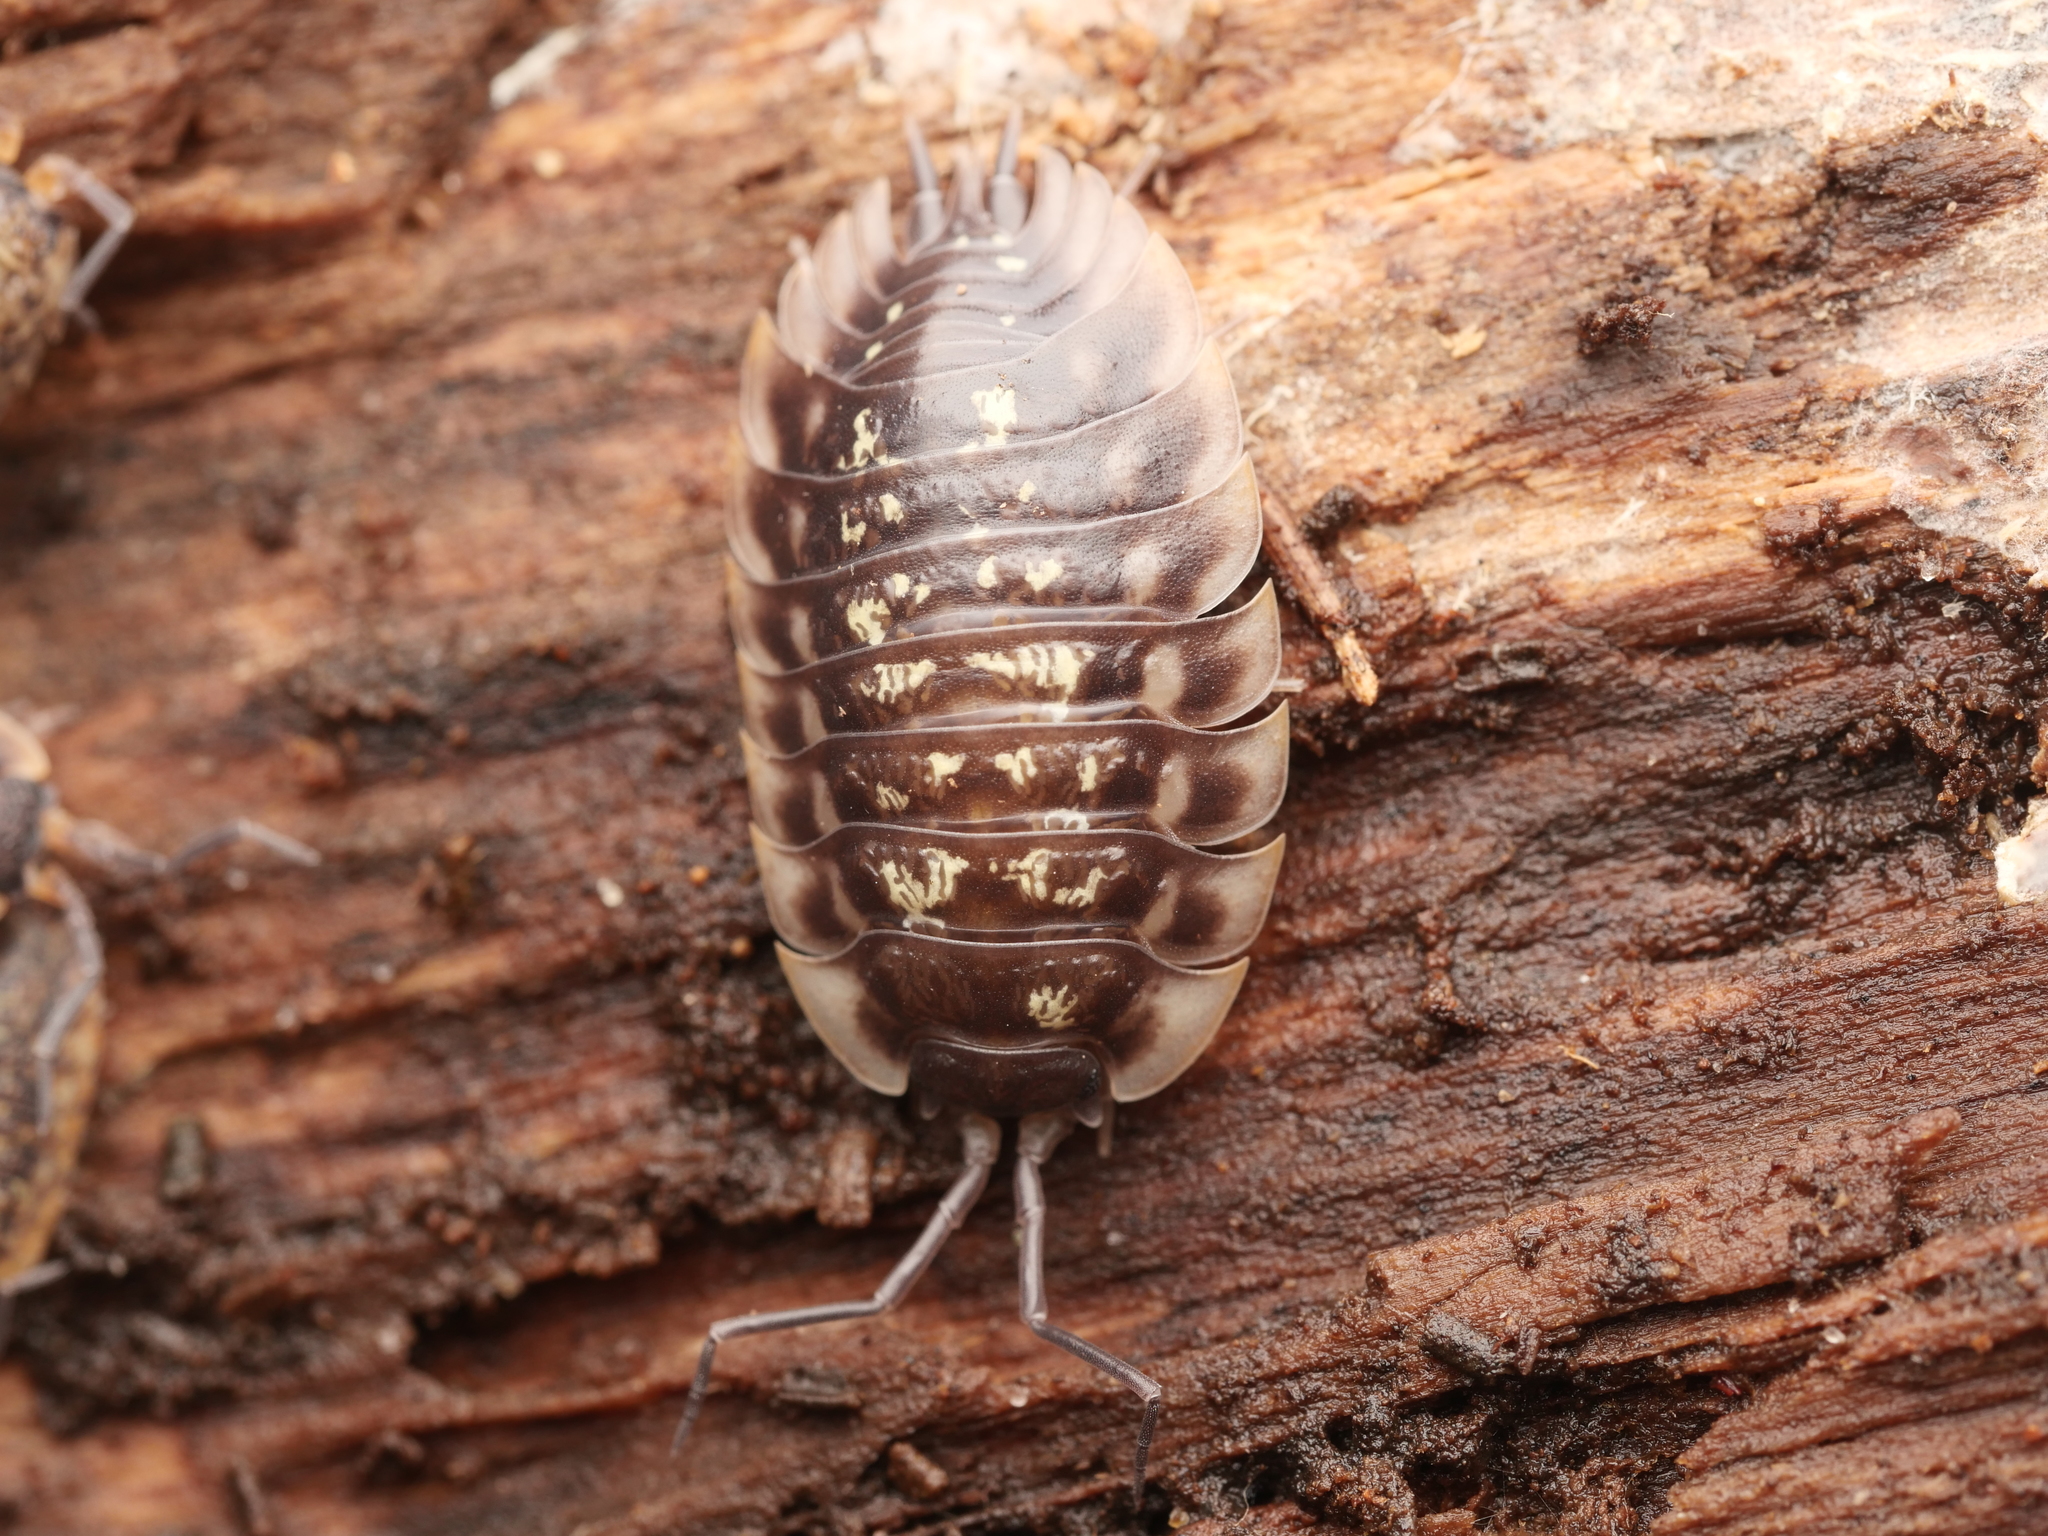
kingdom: Animalia
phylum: Arthropoda
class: Malacostraca
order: Isopoda
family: Oniscidae
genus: Oniscus
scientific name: Oniscus asellus
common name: Common shiny woodlouse
